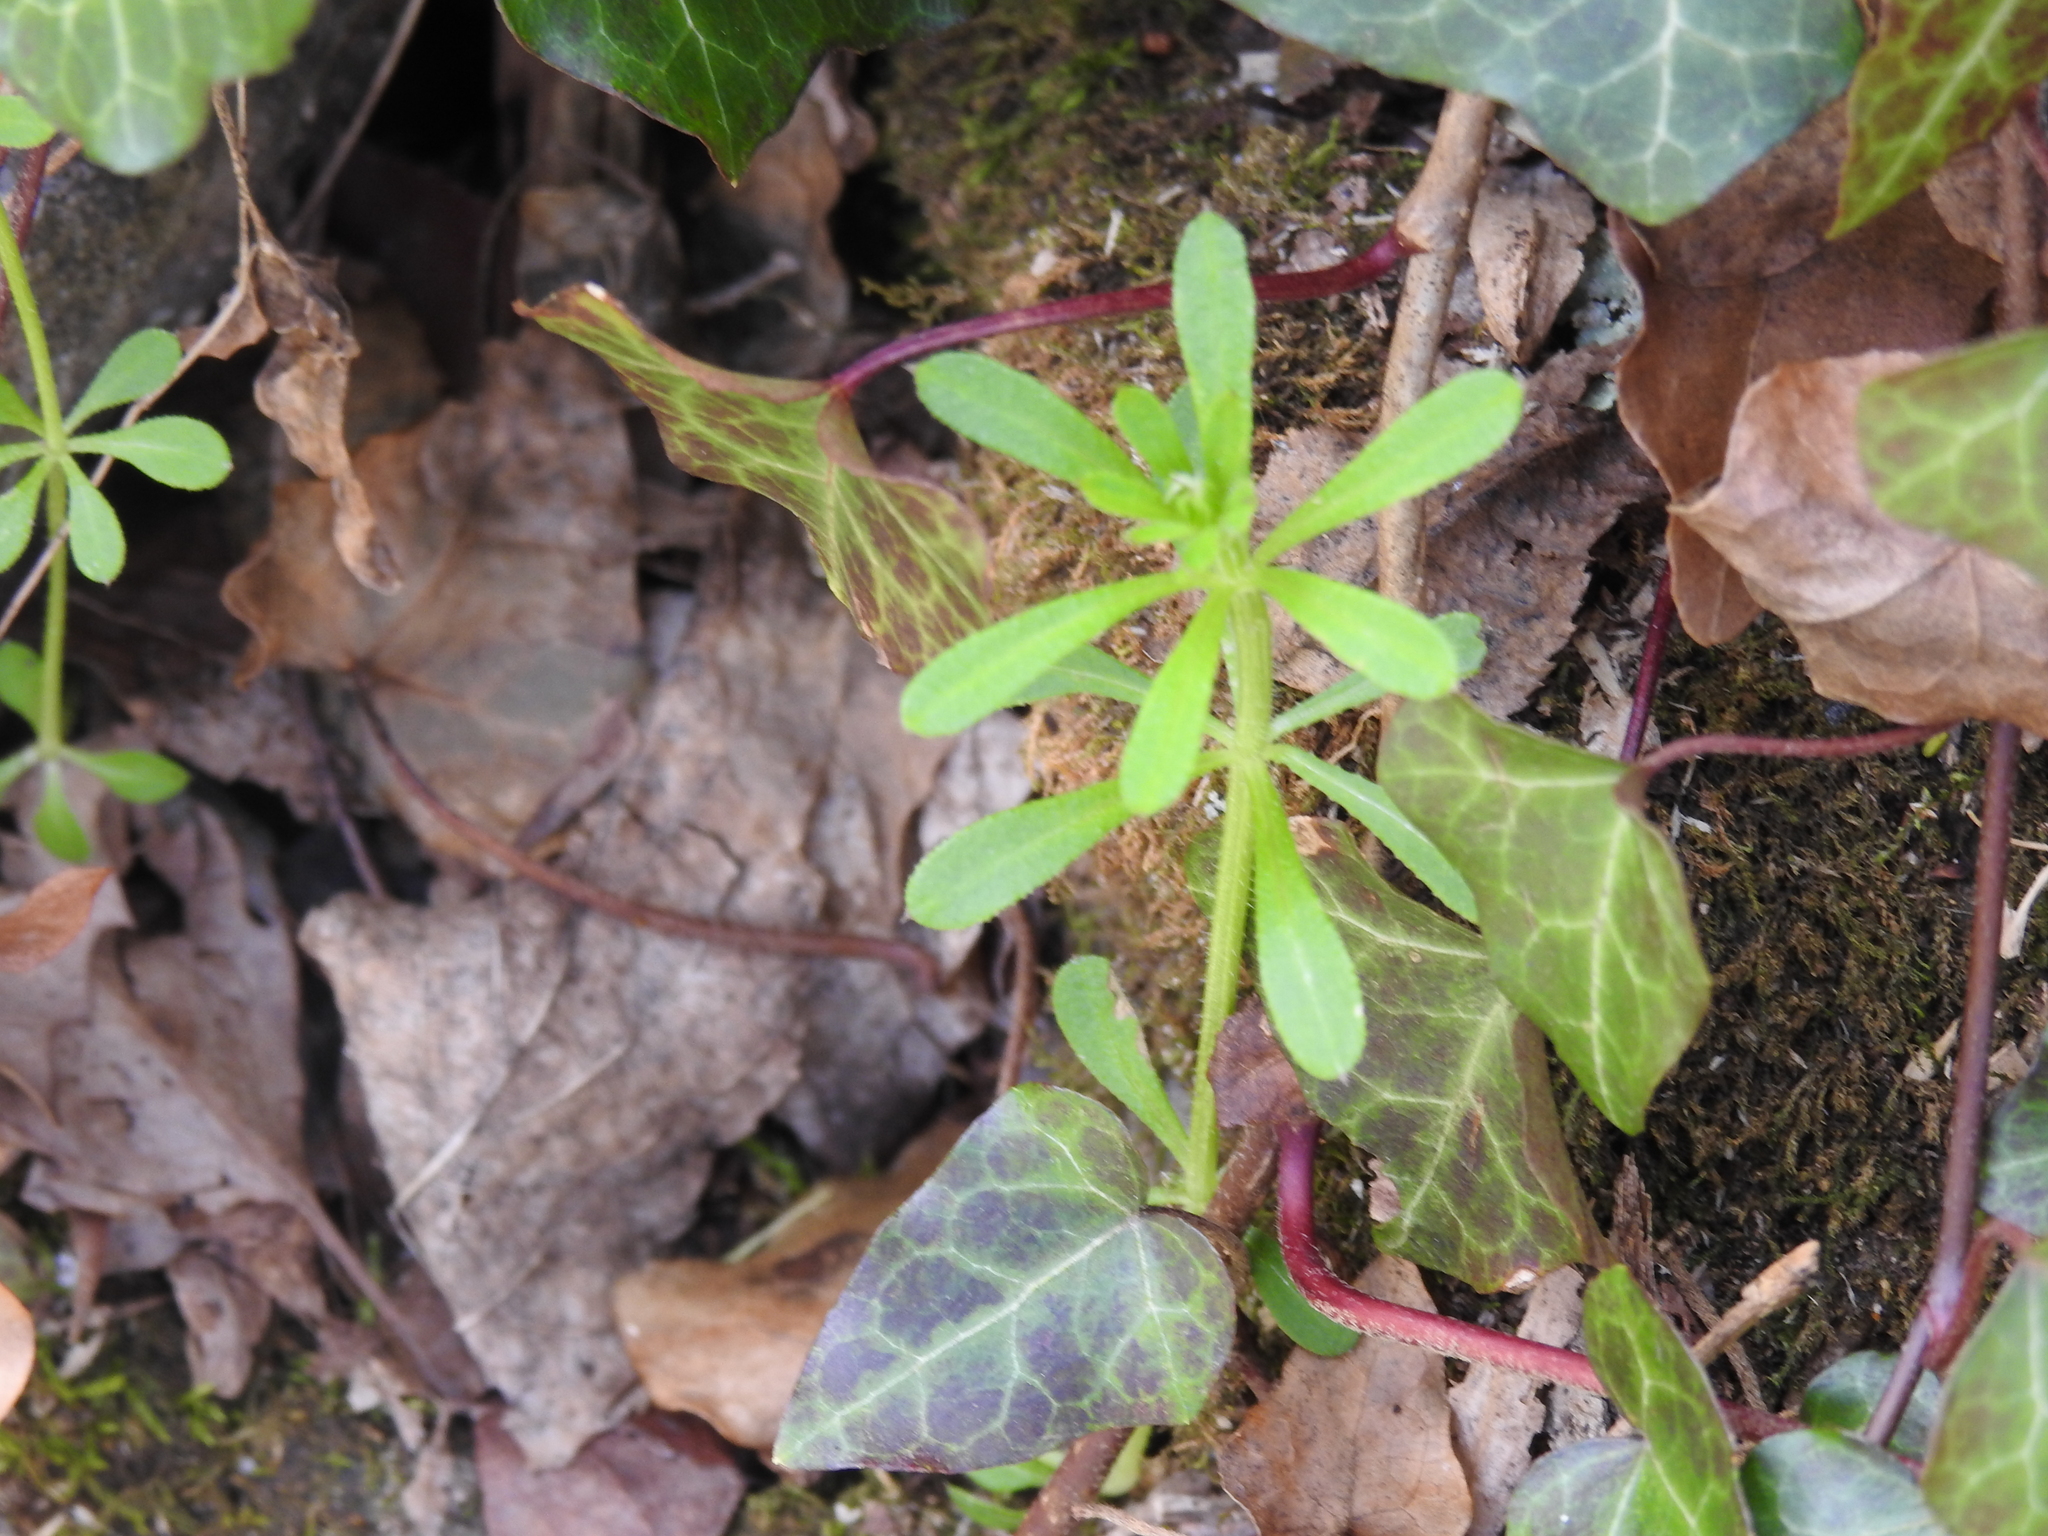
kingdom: Plantae
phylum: Tracheophyta
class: Magnoliopsida
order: Gentianales
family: Rubiaceae
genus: Galium
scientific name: Galium aparine
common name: Cleavers
